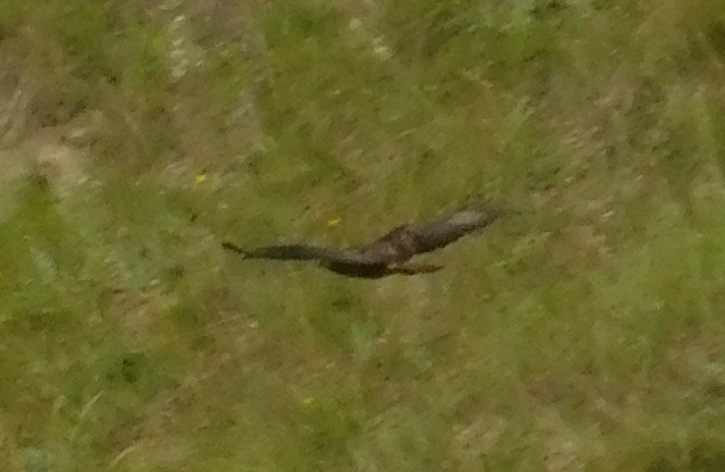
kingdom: Animalia
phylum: Chordata
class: Aves
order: Accipitriformes
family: Accipitridae
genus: Buteo
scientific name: Buteo buteo
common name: Common buzzard
